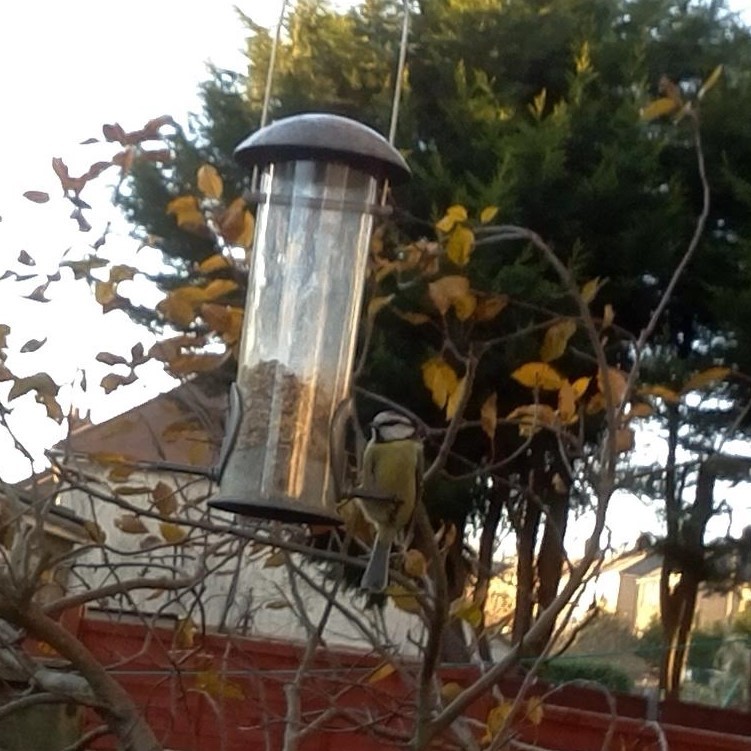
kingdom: Animalia
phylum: Chordata
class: Aves
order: Passeriformes
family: Paridae
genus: Cyanistes
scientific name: Cyanistes caeruleus
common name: Eurasian blue tit
